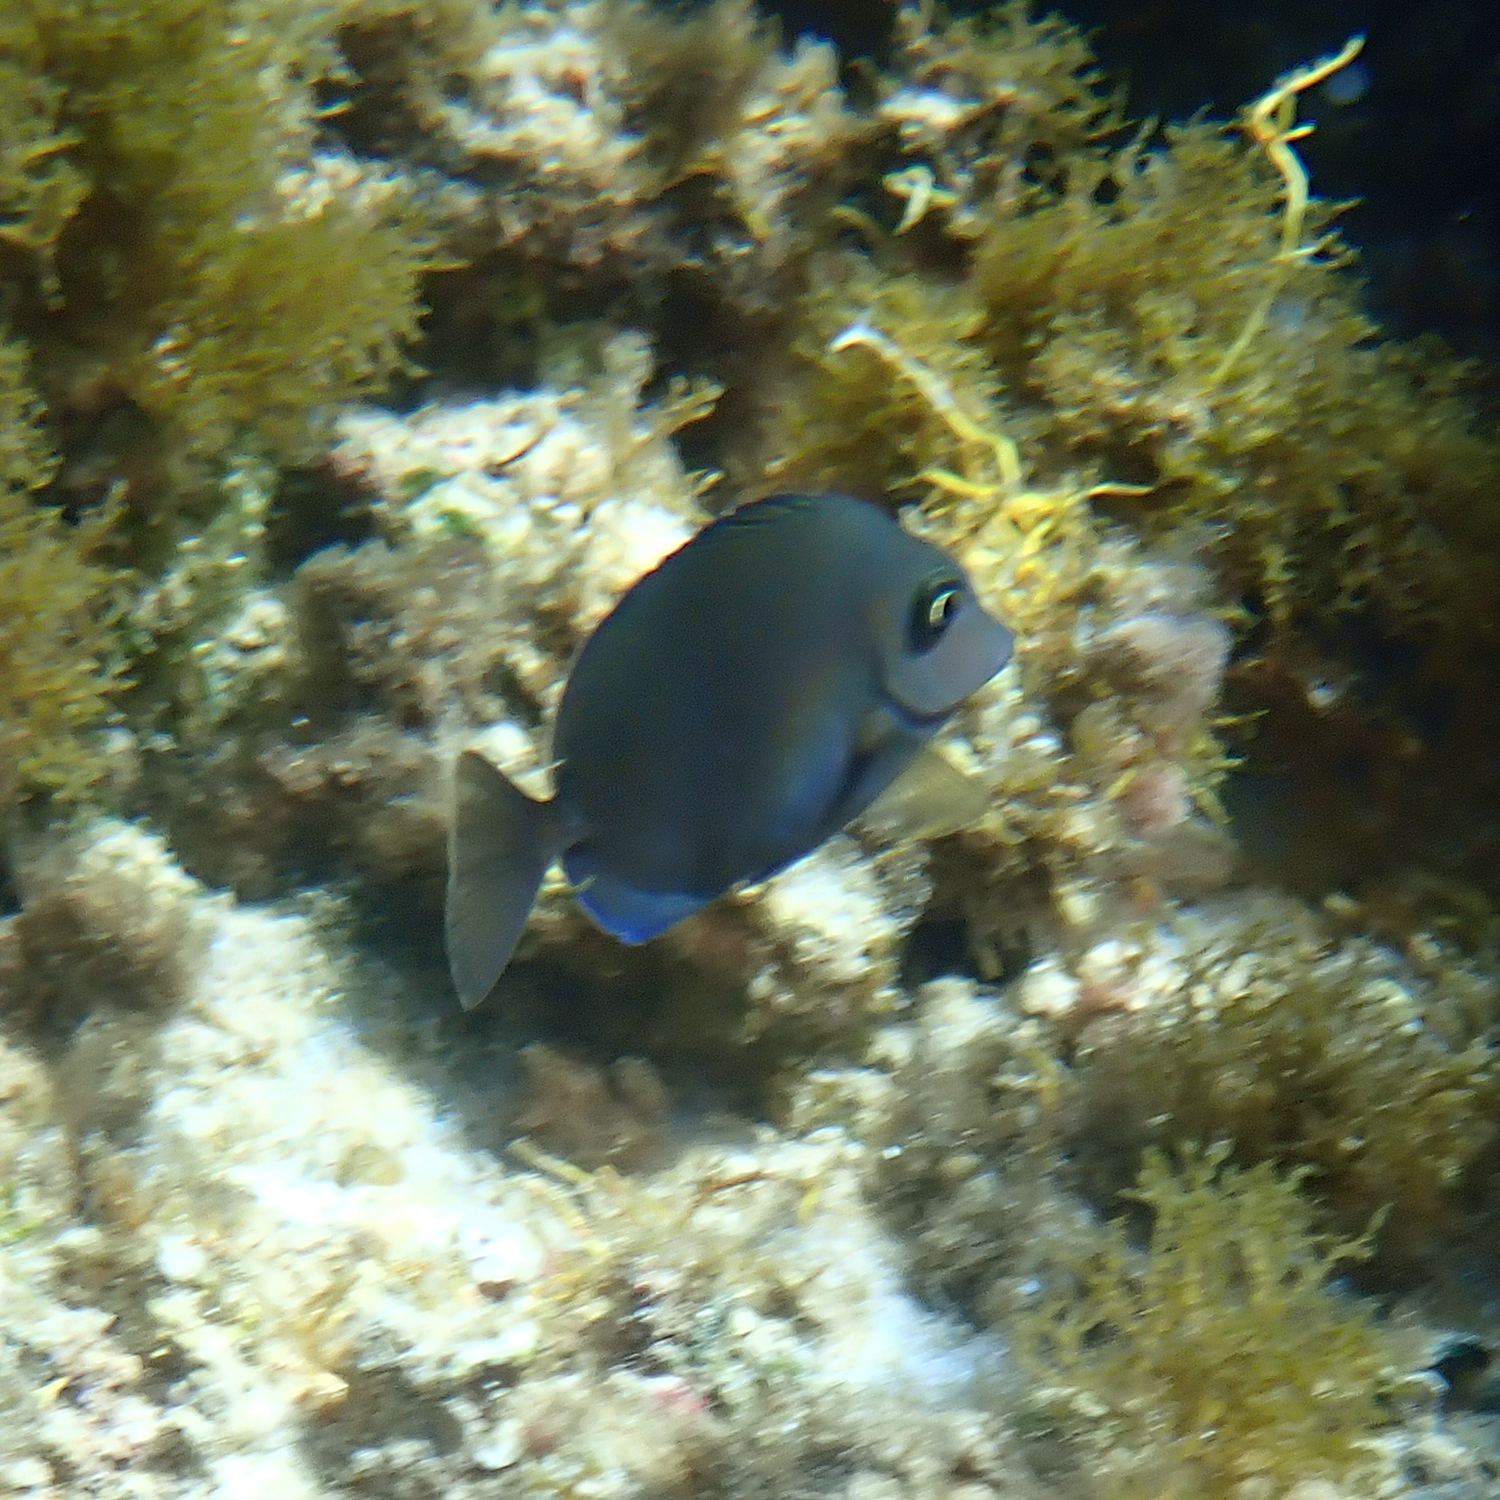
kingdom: Animalia
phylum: Chordata
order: Perciformes
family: Acanthuridae
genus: Prionurus
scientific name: Prionurus maculatus
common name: Yellowspotted sawtail
